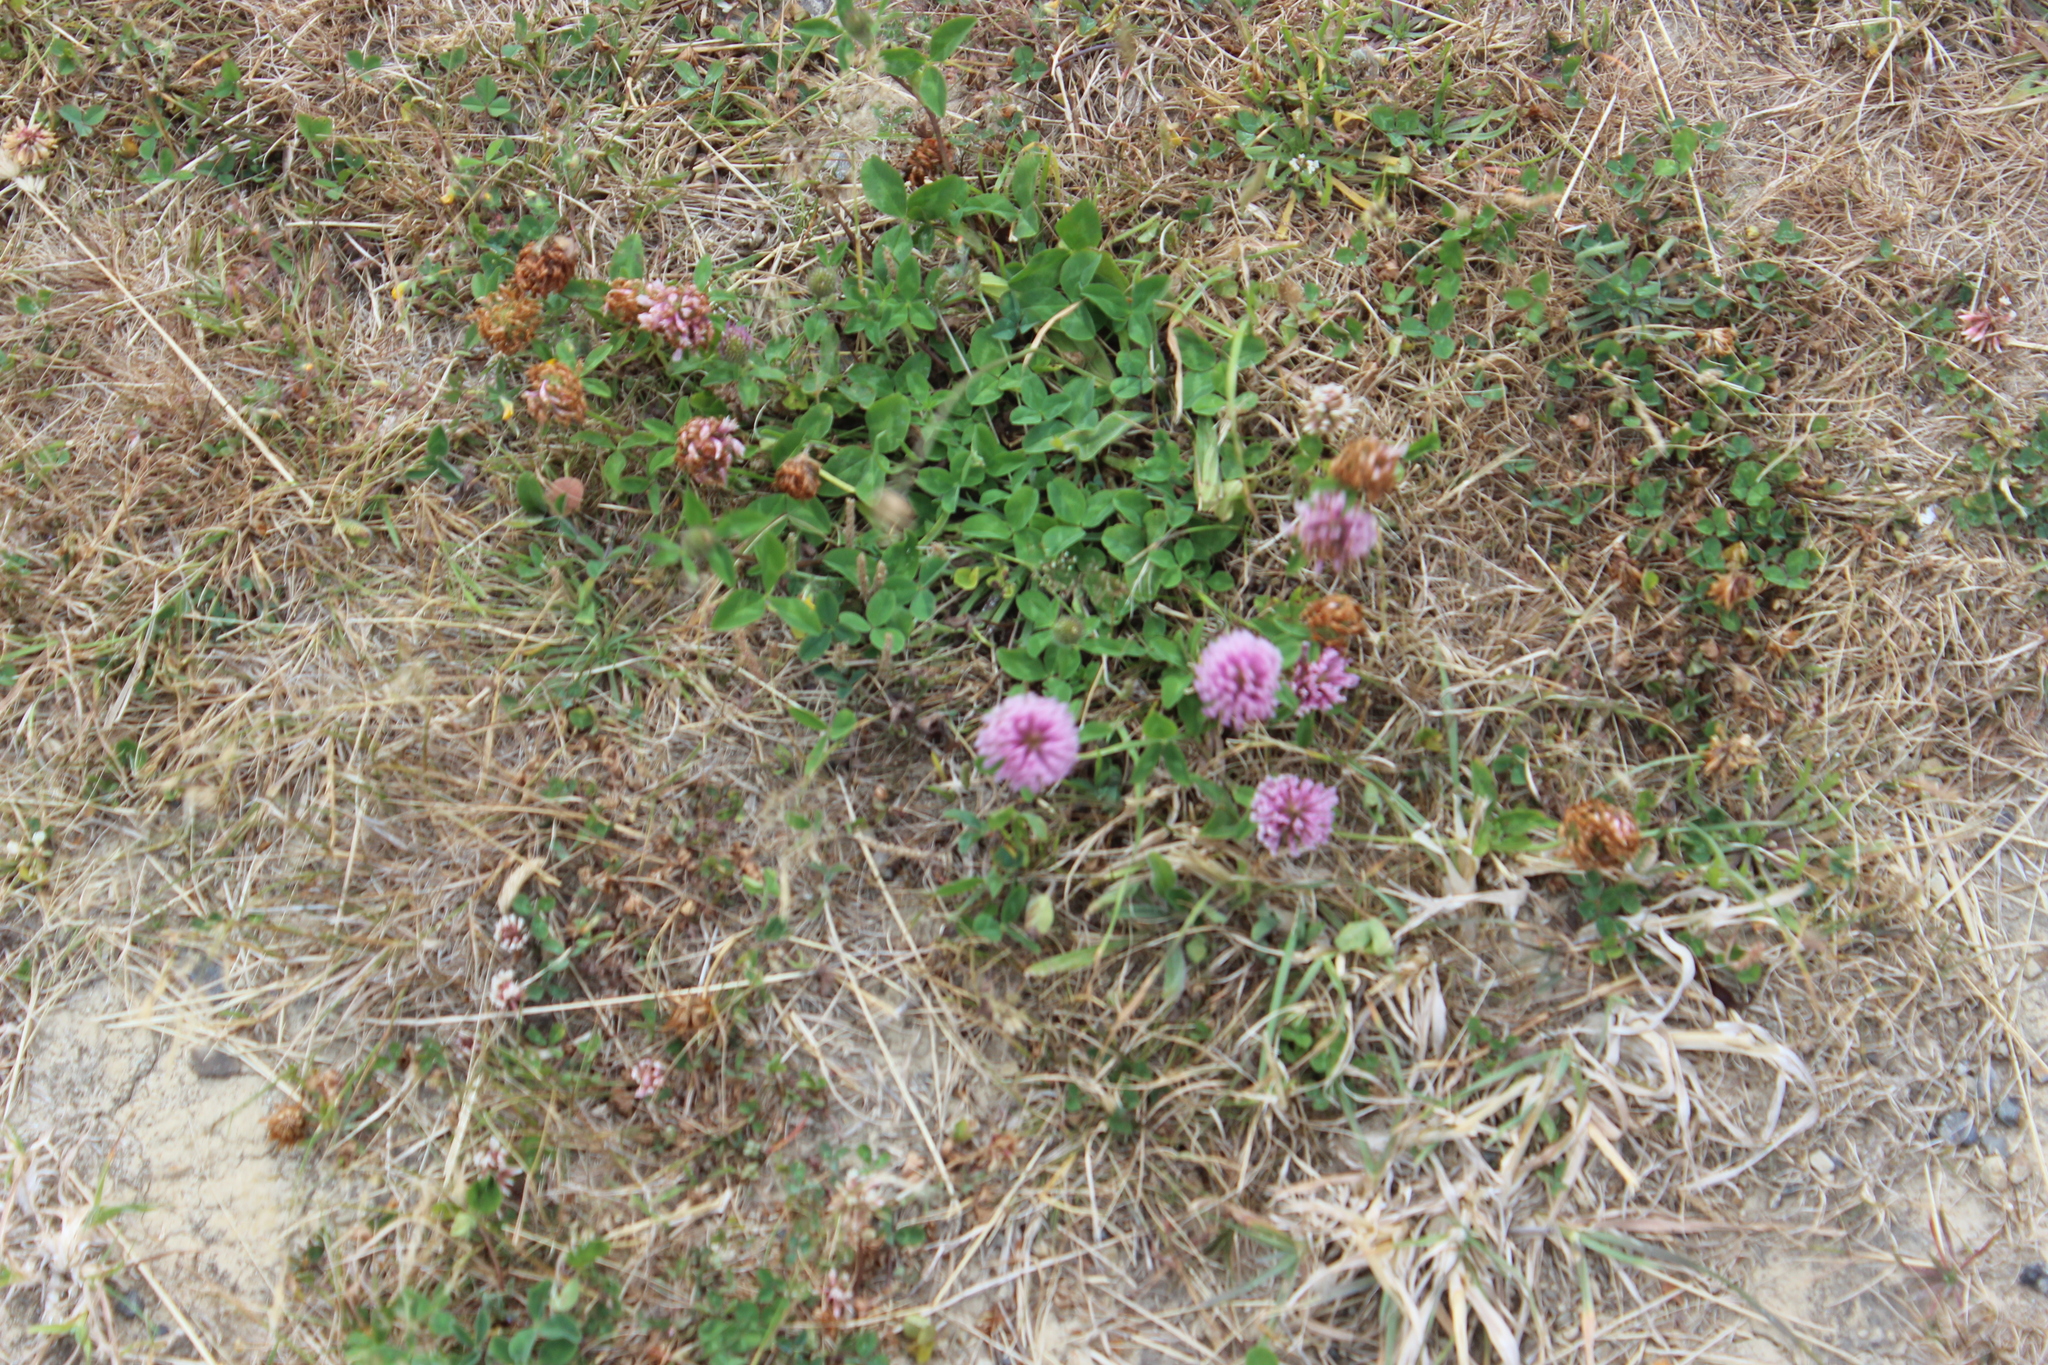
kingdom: Plantae
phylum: Tracheophyta
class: Magnoliopsida
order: Fabales
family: Fabaceae
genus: Trifolium
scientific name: Trifolium pratense
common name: Red clover
